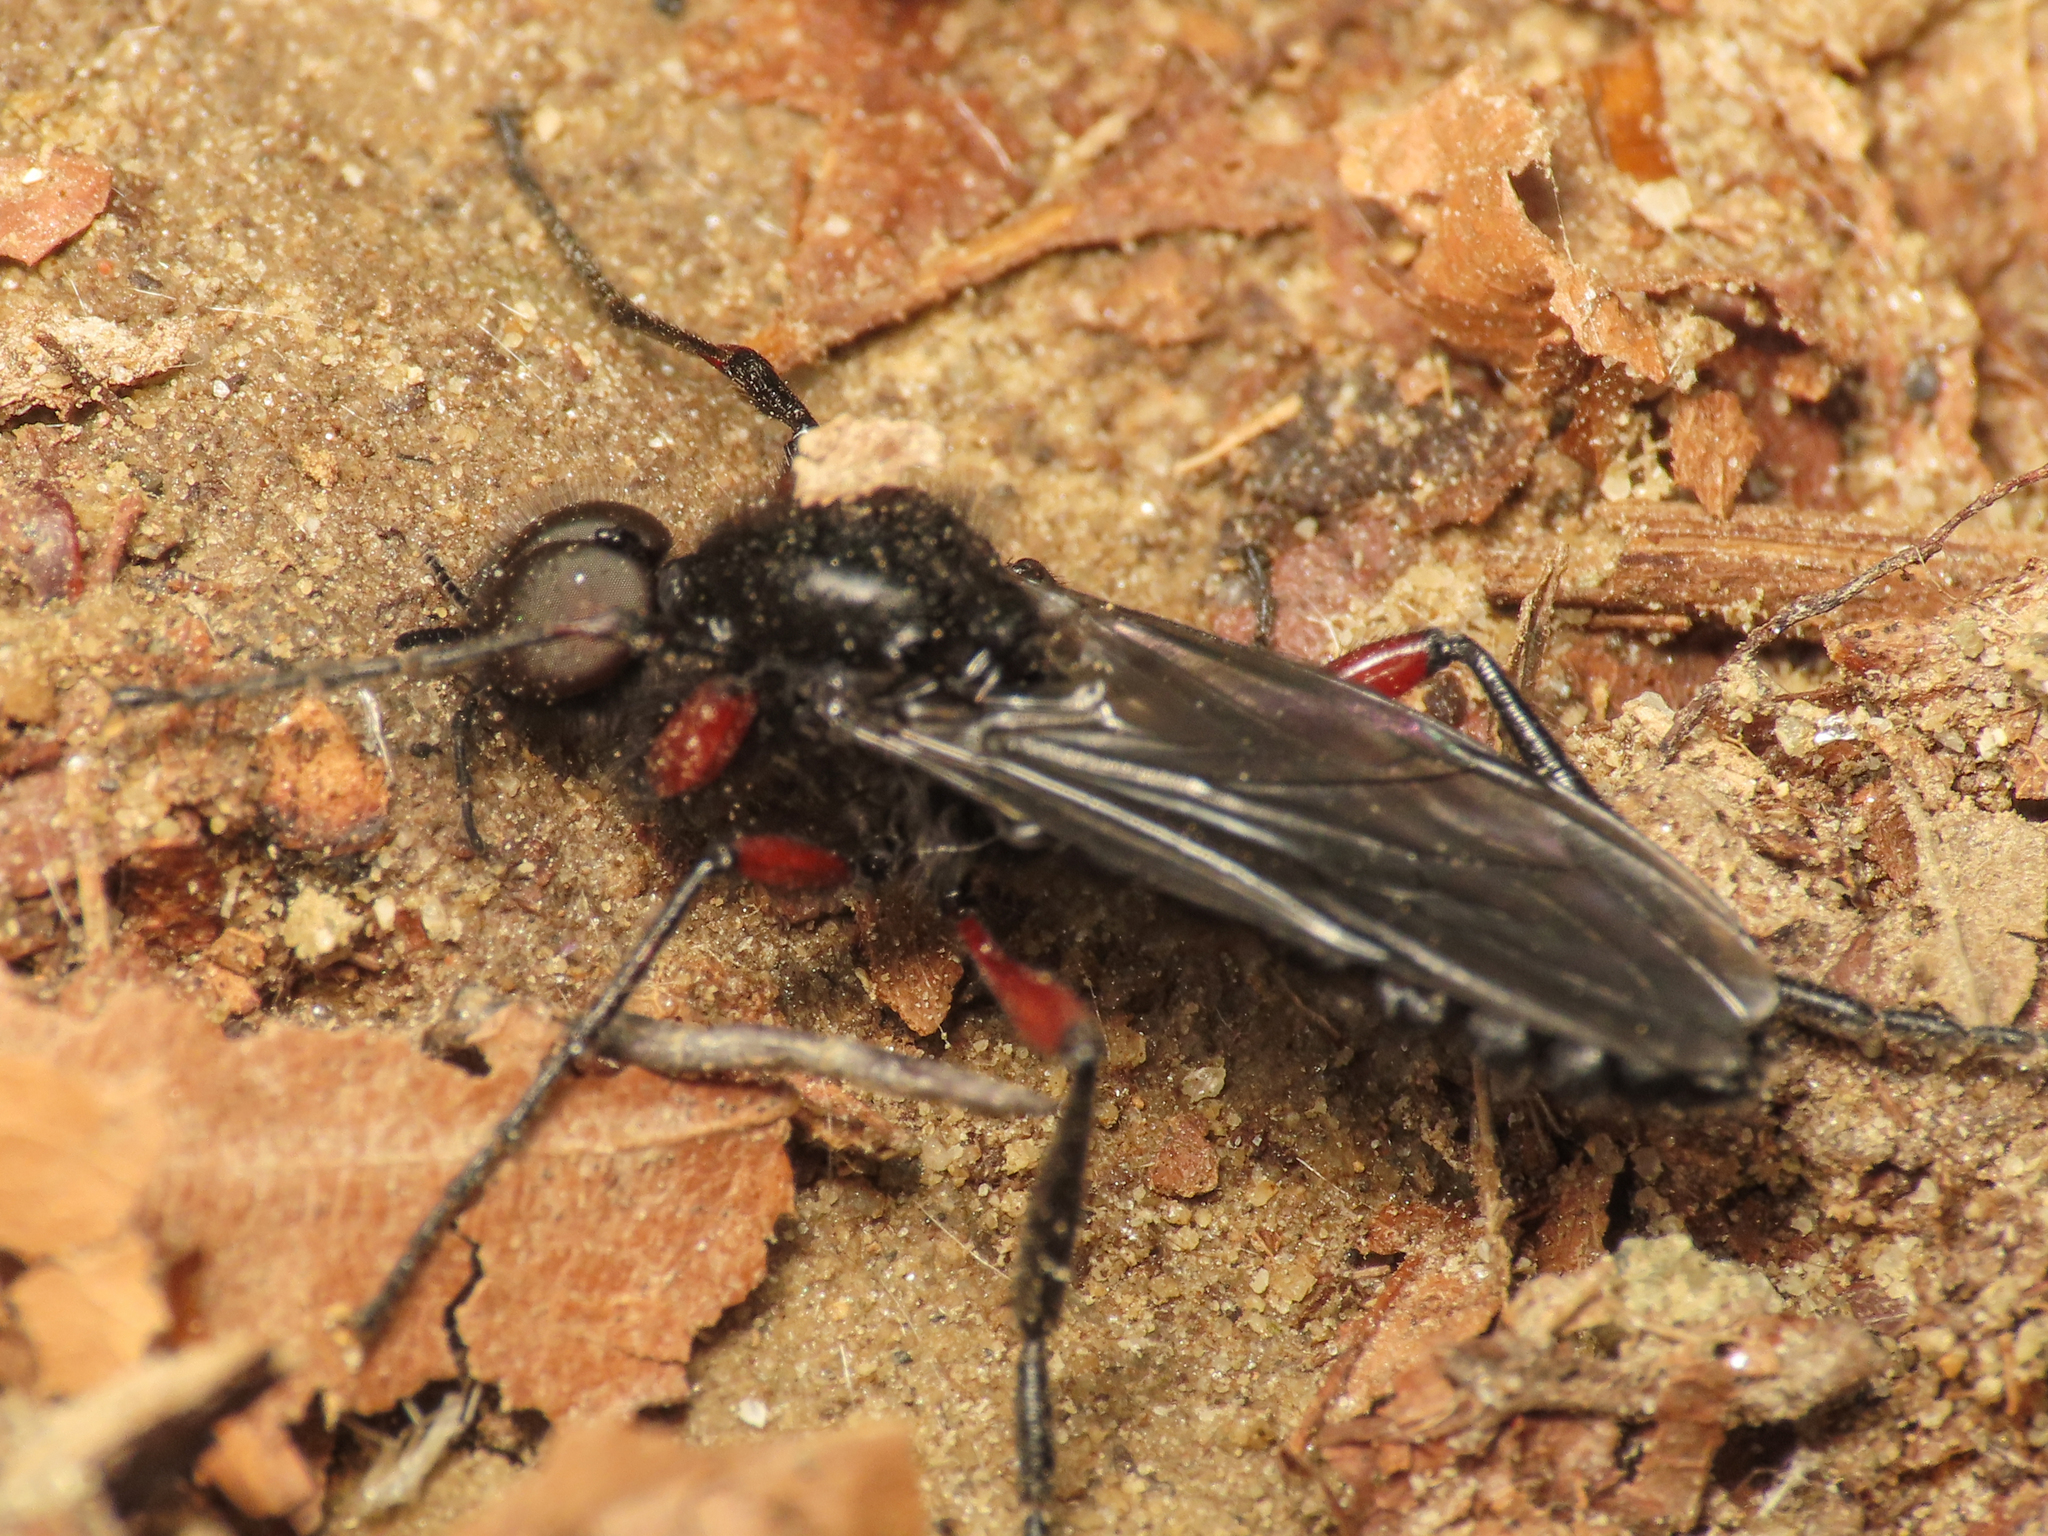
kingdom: Animalia
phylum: Arthropoda
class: Insecta
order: Diptera
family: Bibionidae
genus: Bibio
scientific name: Bibio pomonae
